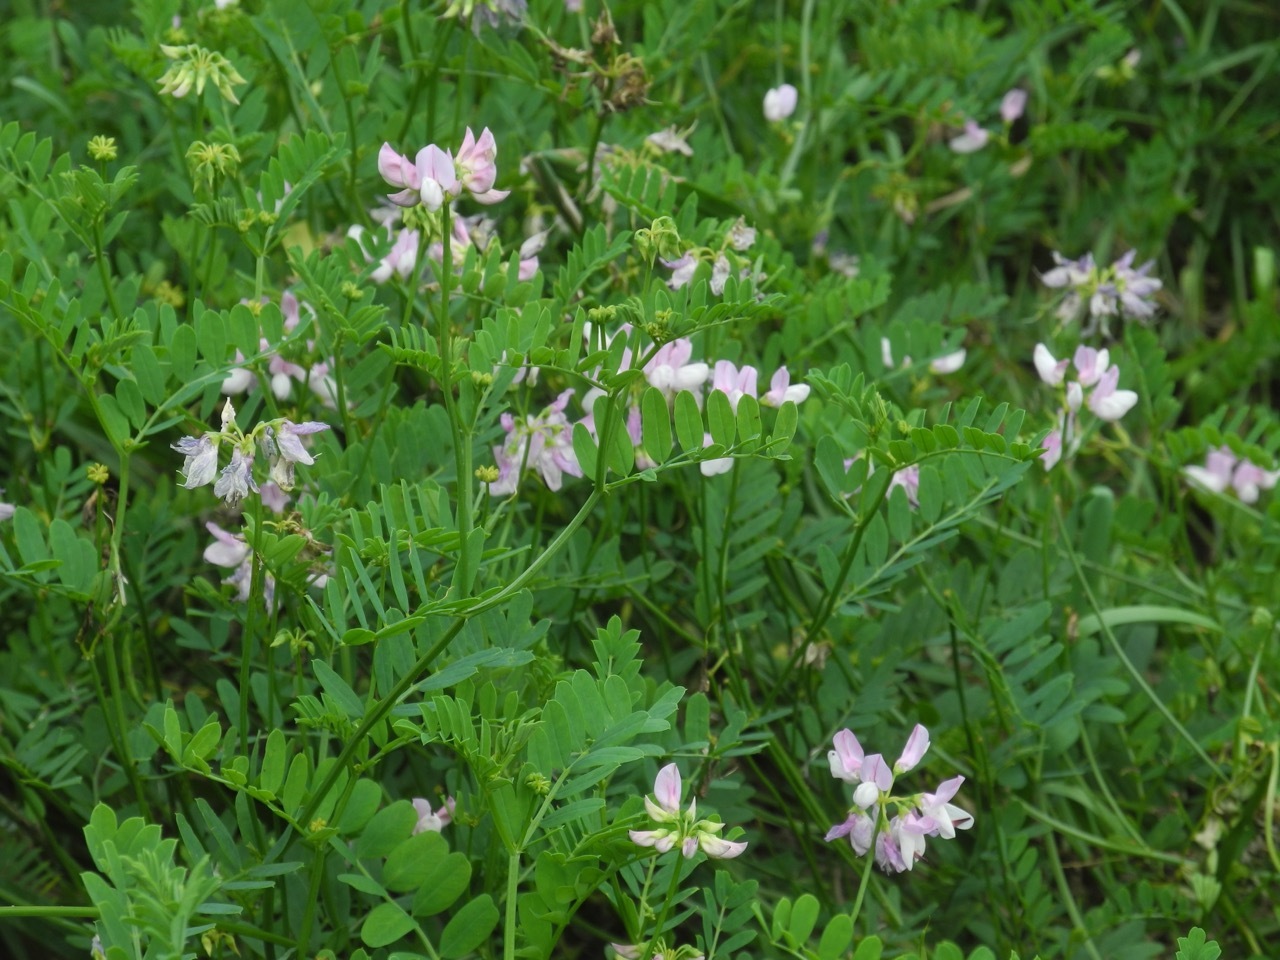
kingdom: Plantae
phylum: Tracheophyta
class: Magnoliopsida
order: Fabales
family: Fabaceae
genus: Coronilla
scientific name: Coronilla varia
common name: Crownvetch
